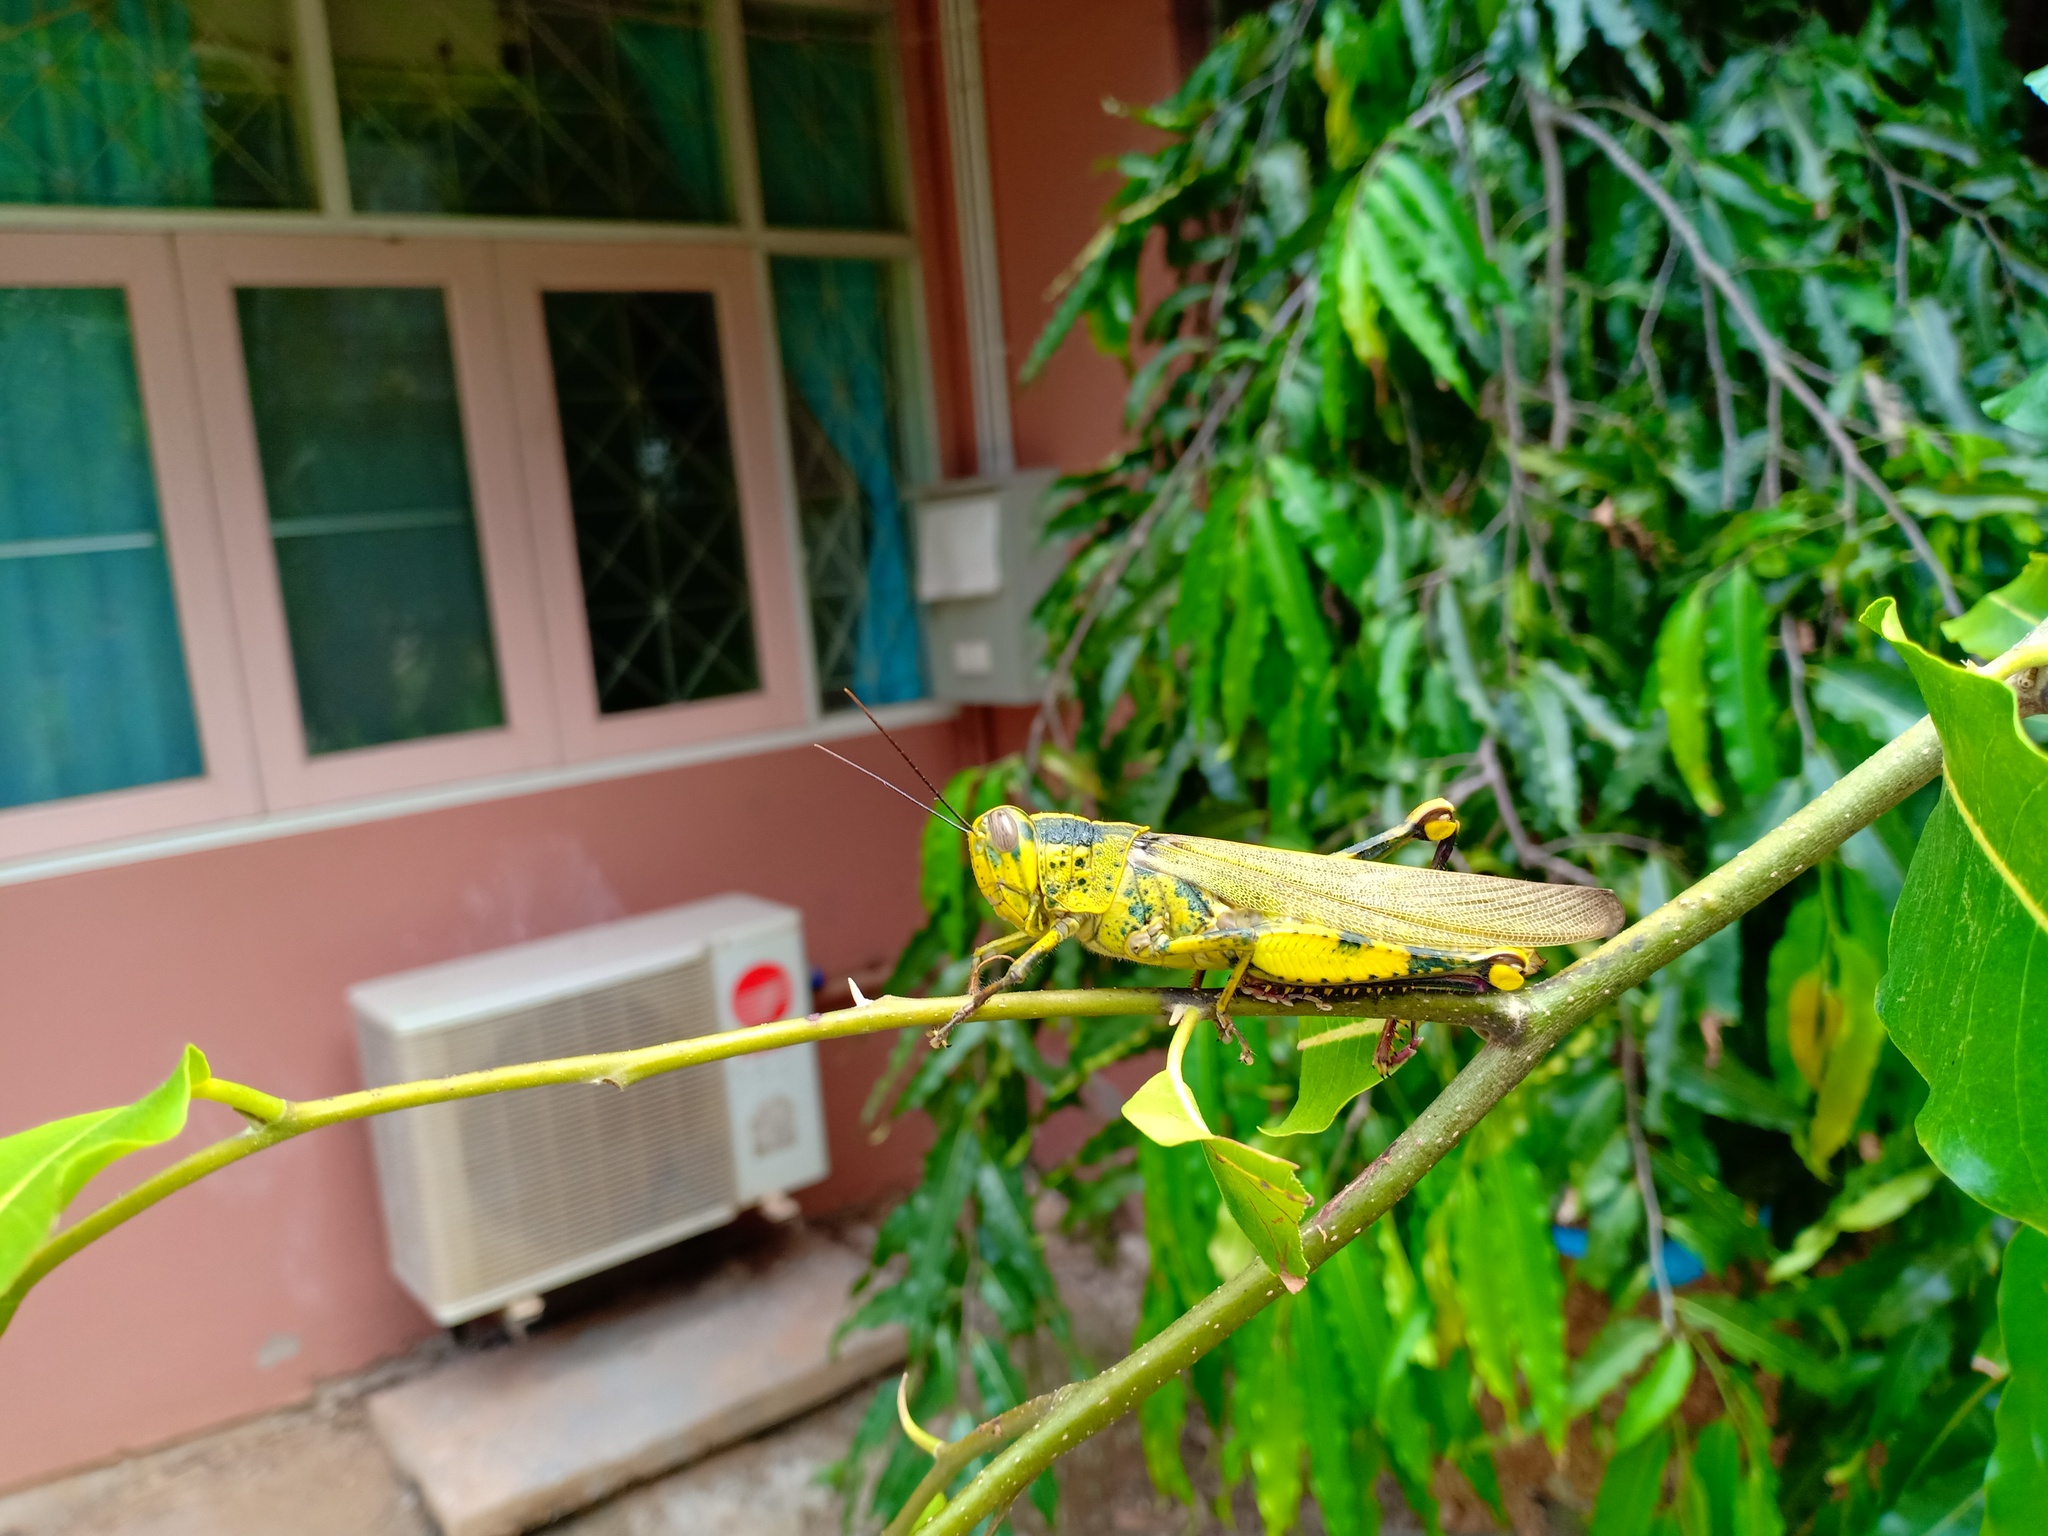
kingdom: Animalia
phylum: Arthropoda
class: Insecta
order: Orthoptera
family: Acrididae
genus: Valanga
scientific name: Valanga nigricornis
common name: Javanese bird grasshopper
